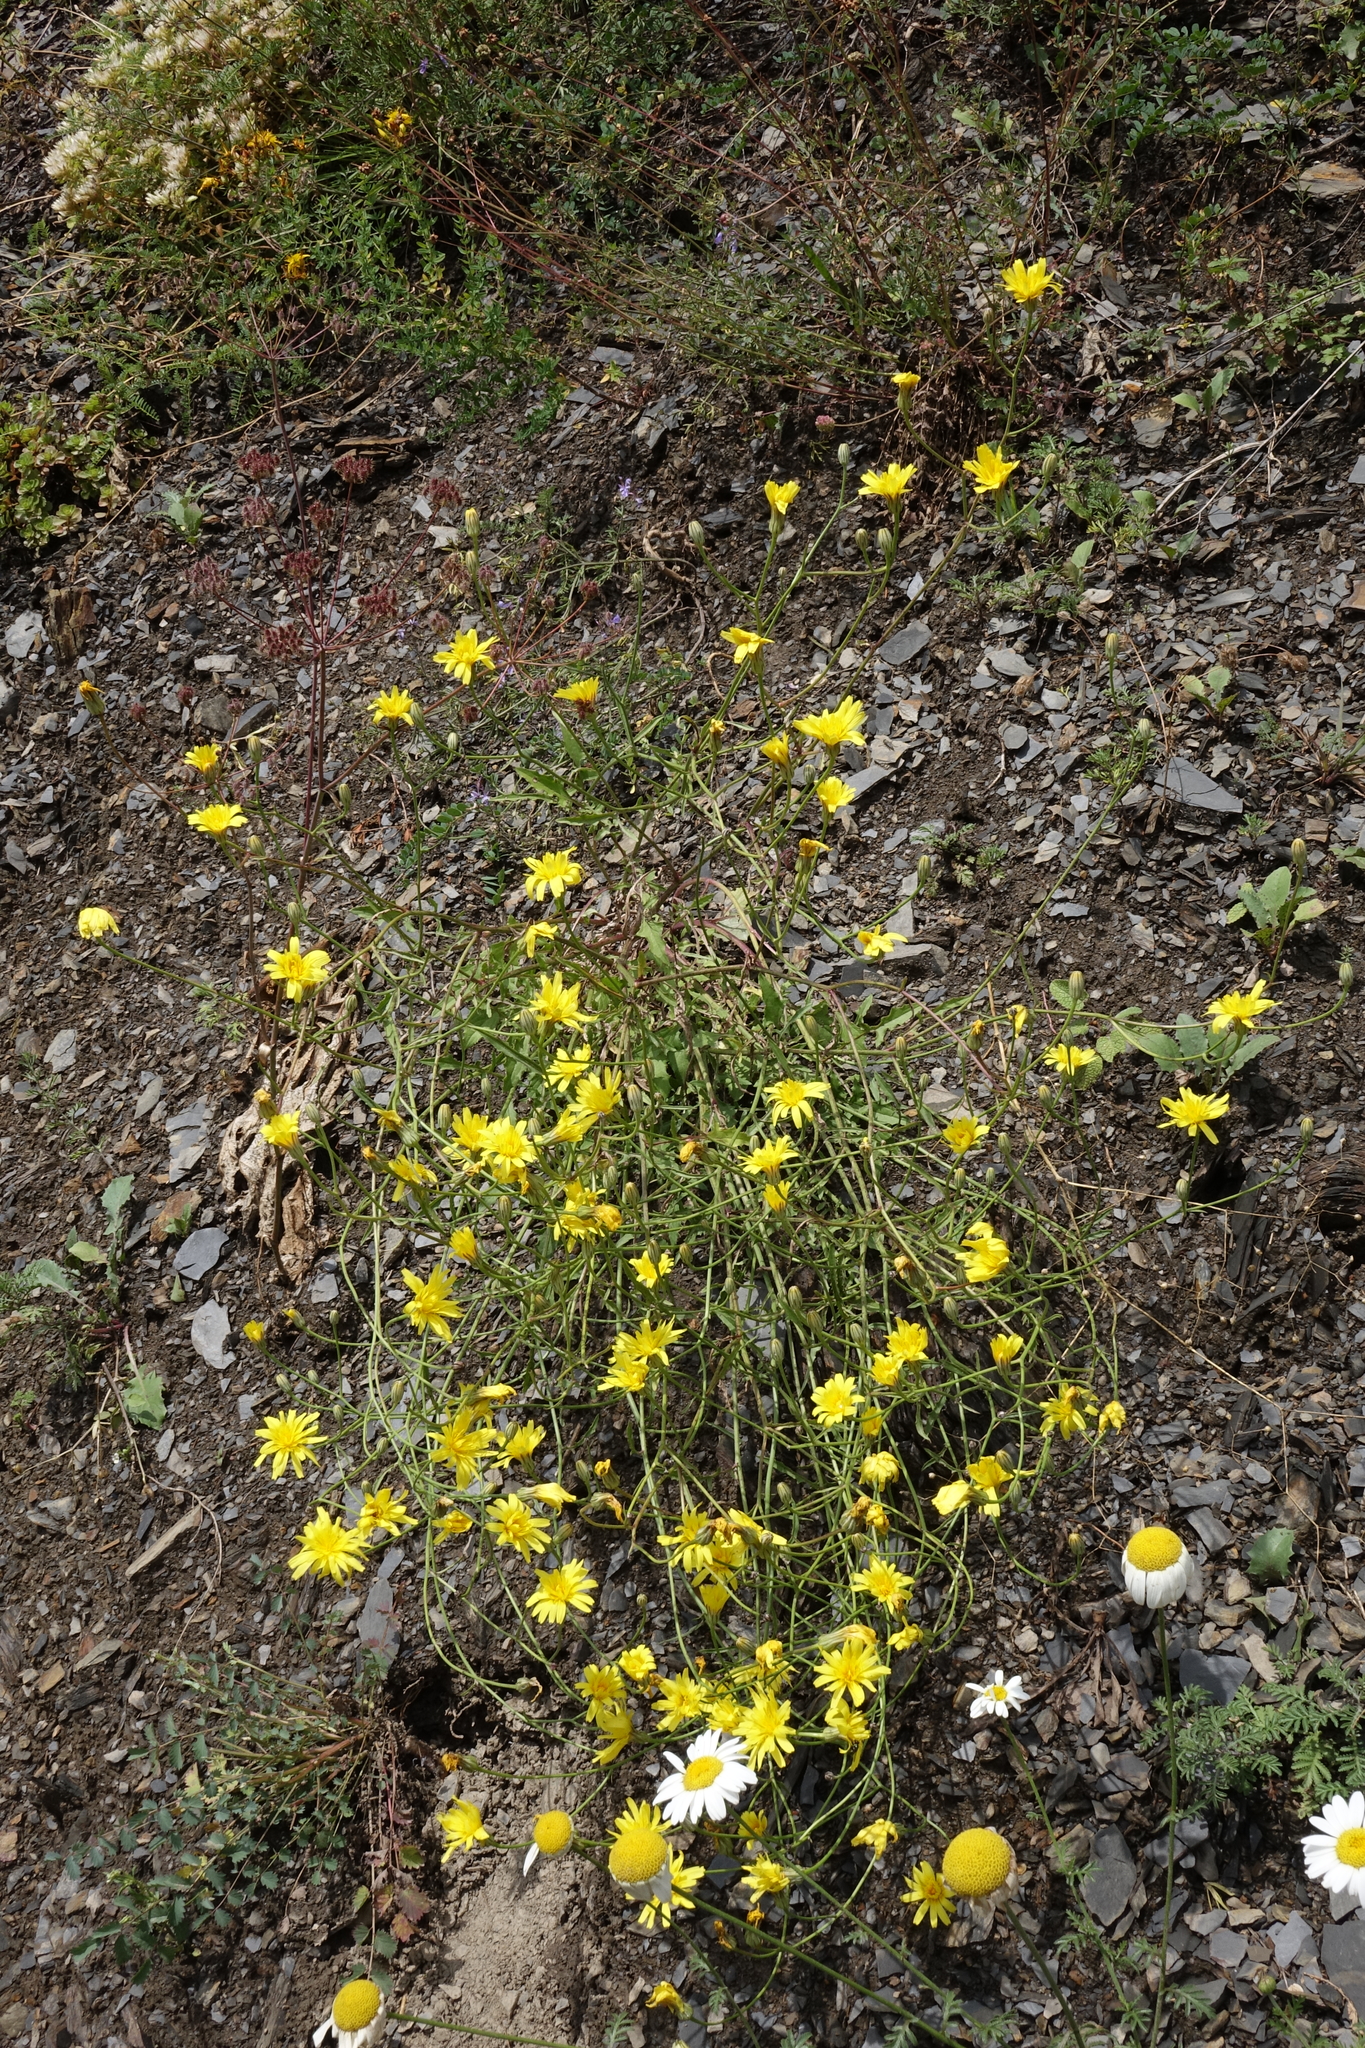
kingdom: Plantae
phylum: Tracheophyta
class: Magnoliopsida
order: Asterales
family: Asteraceae
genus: Crepis
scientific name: Crepis sonchifolia
